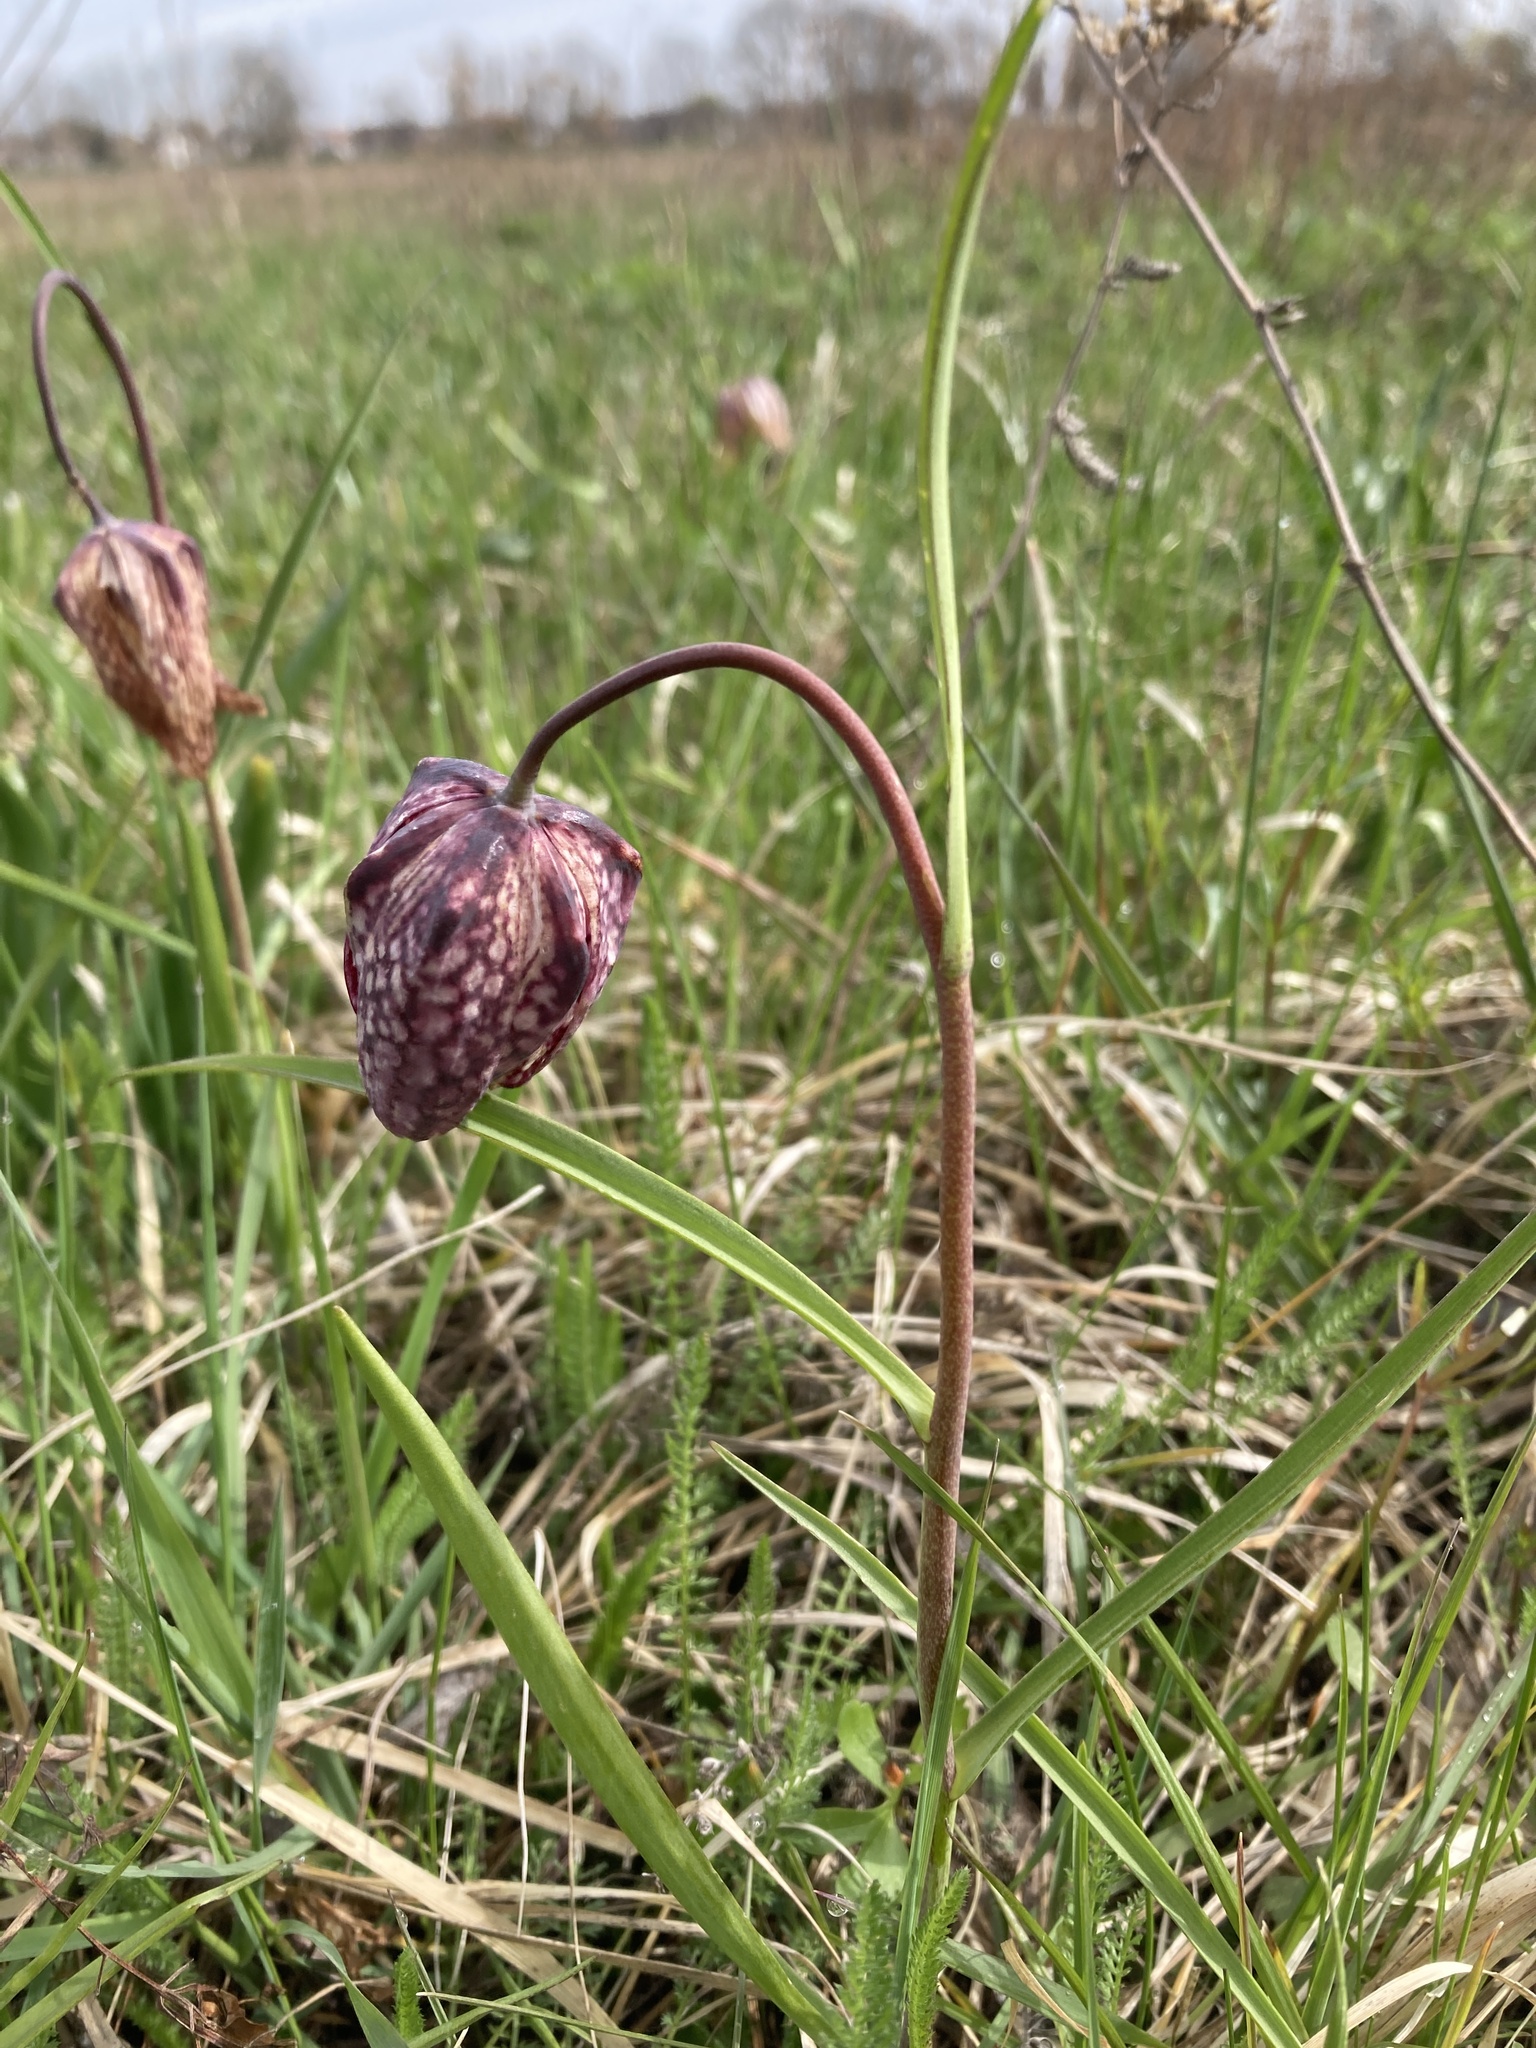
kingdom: Plantae
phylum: Tracheophyta
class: Liliopsida
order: Liliales
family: Liliaceae
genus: Fritillaria
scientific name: Fritillaria meleagris
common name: Fritillary
